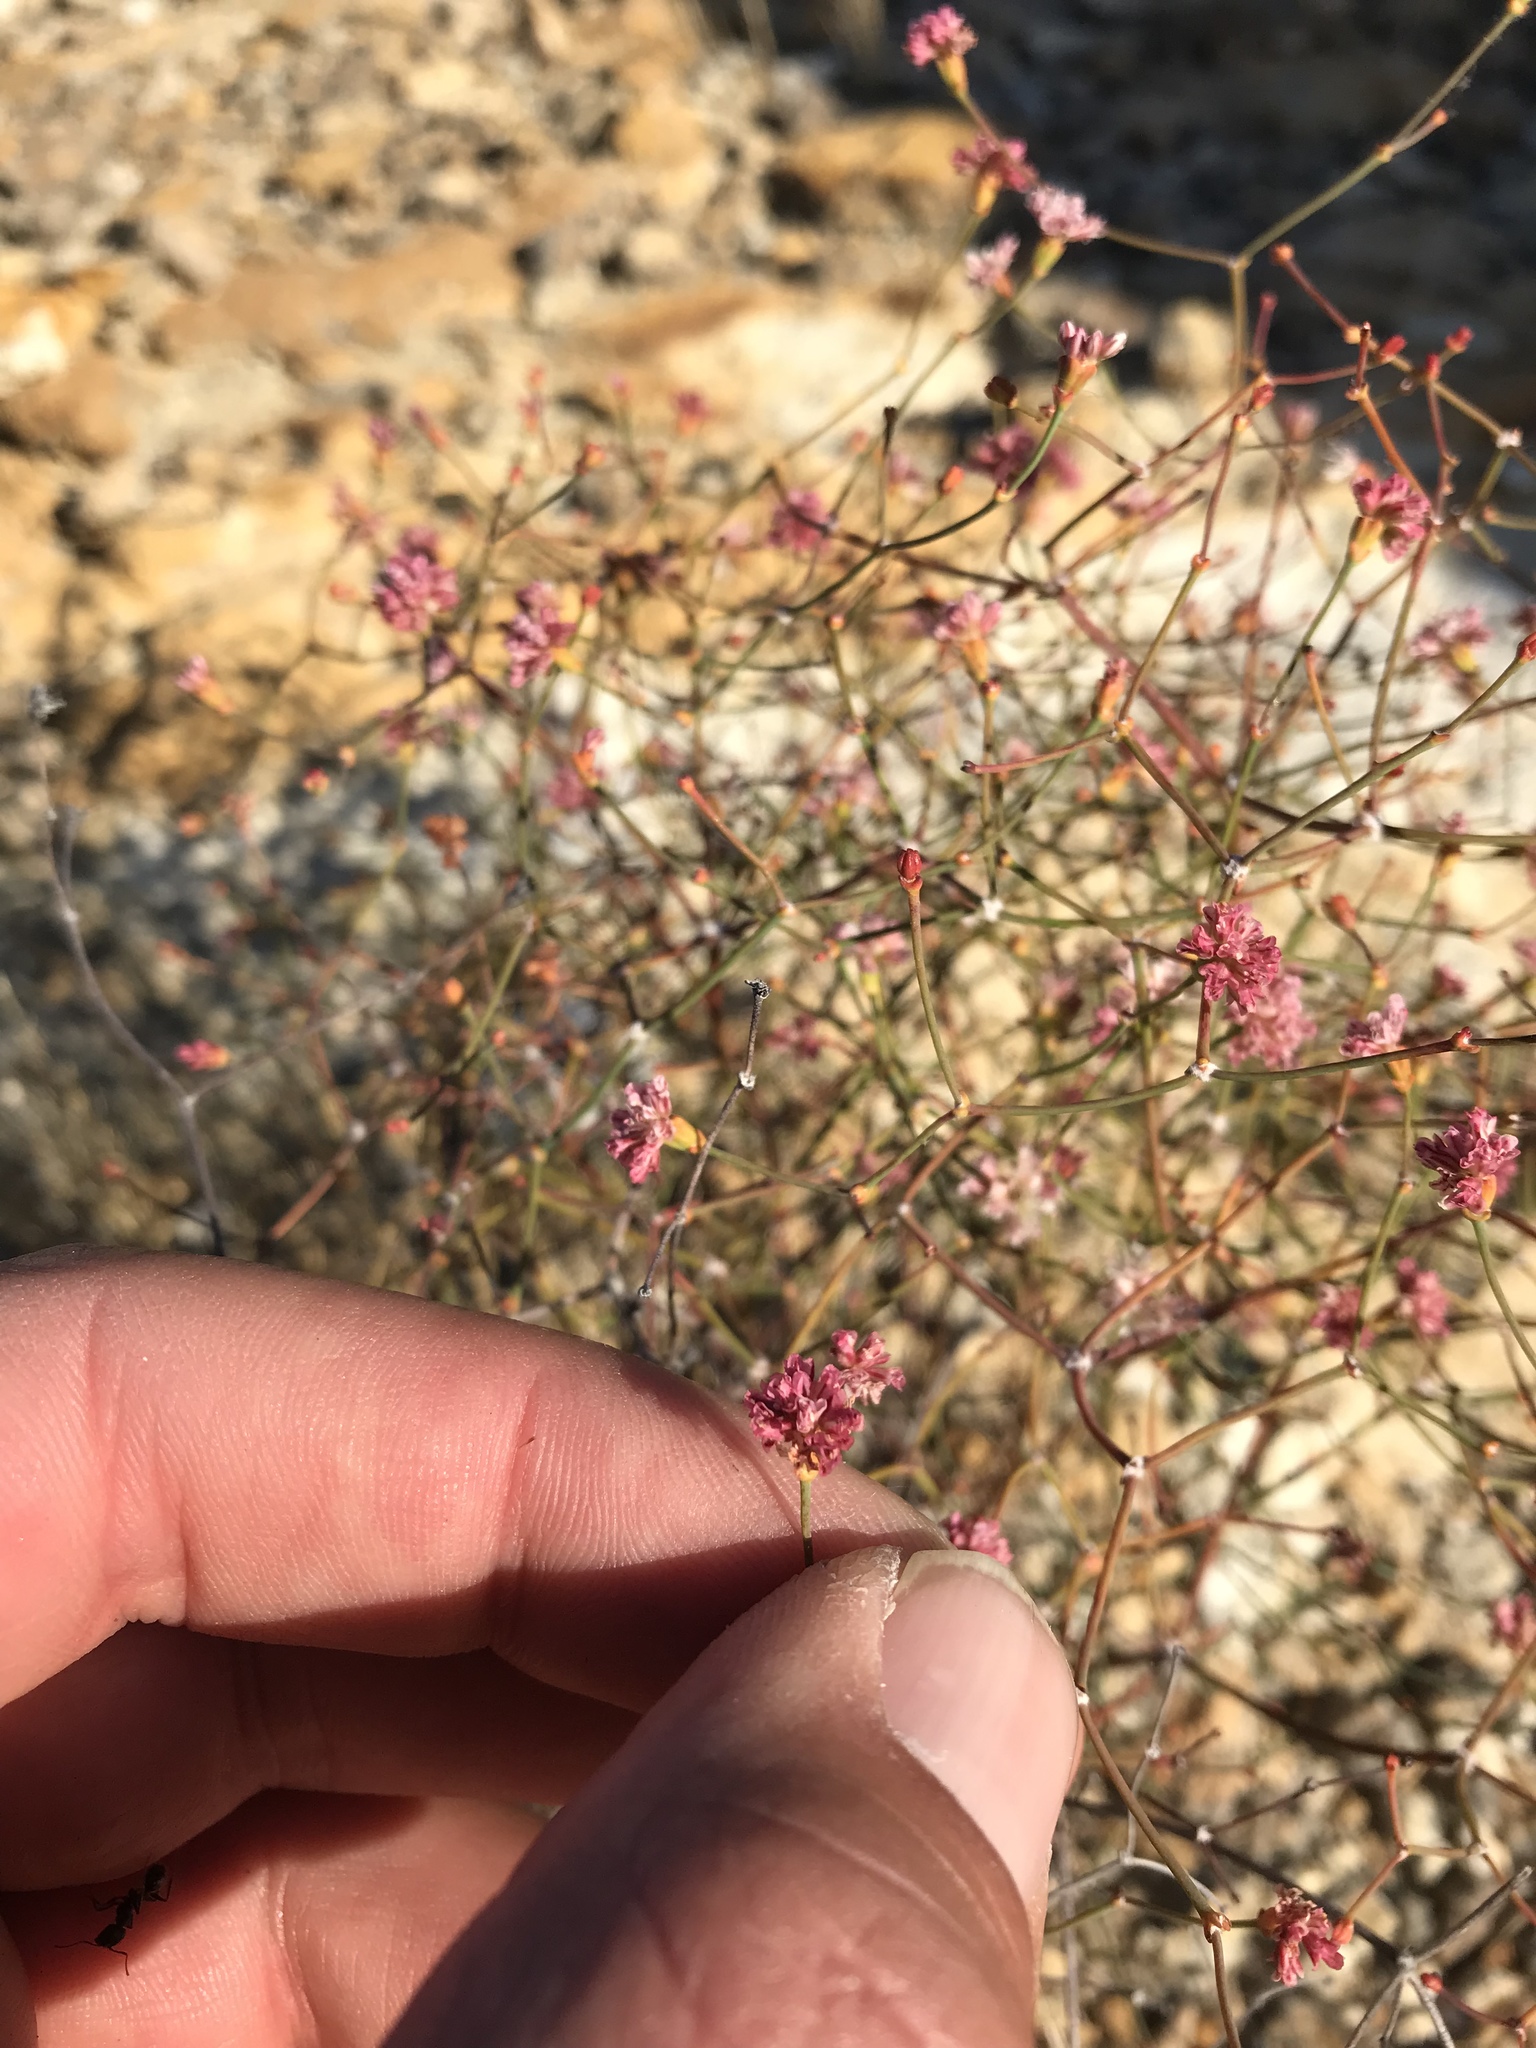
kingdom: Plantae
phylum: Tracheophyta
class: Magnoliopsida
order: Caryophyllales
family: Polygonaceae
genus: Eriogonum
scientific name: Eriogonum apricum
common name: Ione wild buckwheat
